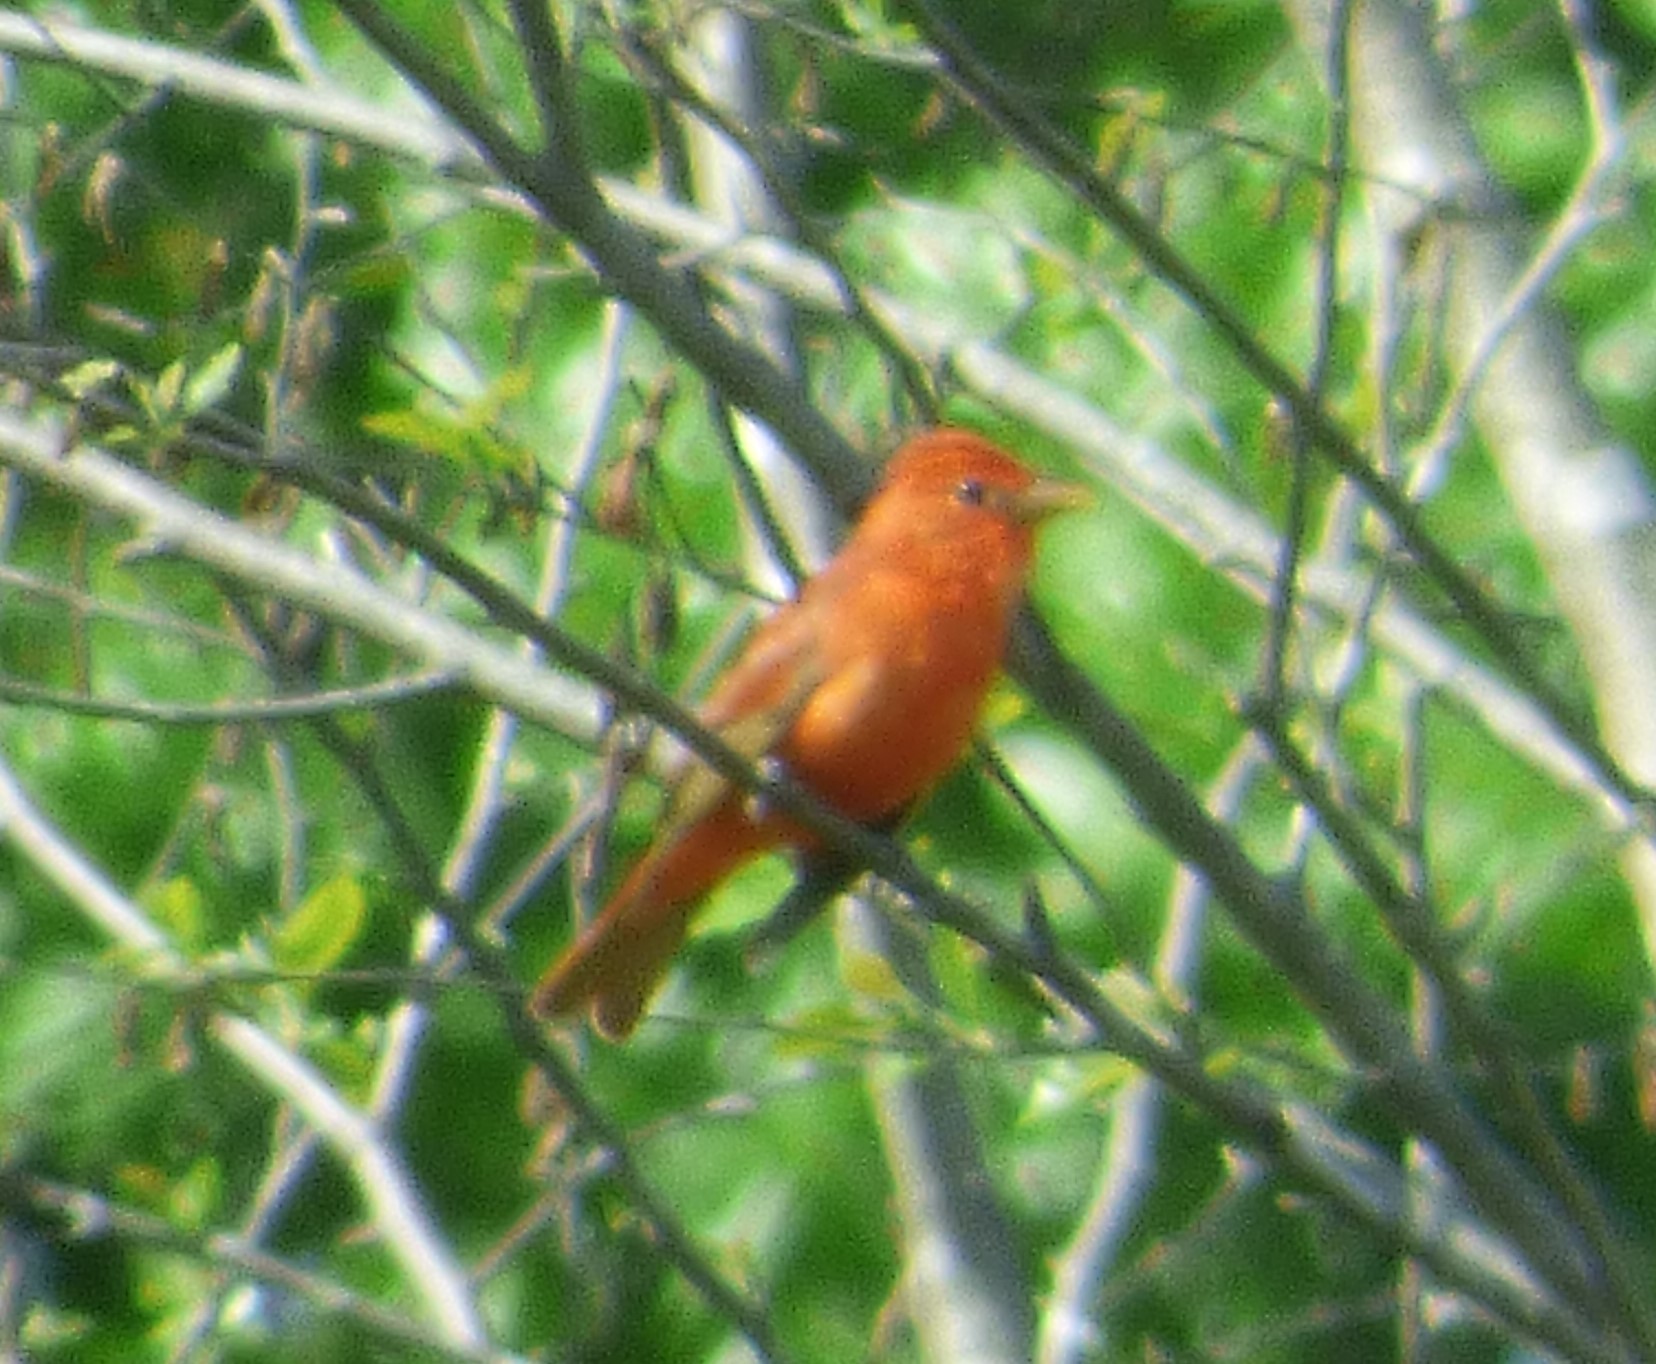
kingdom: Animalia
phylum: Chordata
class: Aves
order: Passeriformes
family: Cardinalidae
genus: Piranga
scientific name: Piranga rubra
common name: Summer tanager
